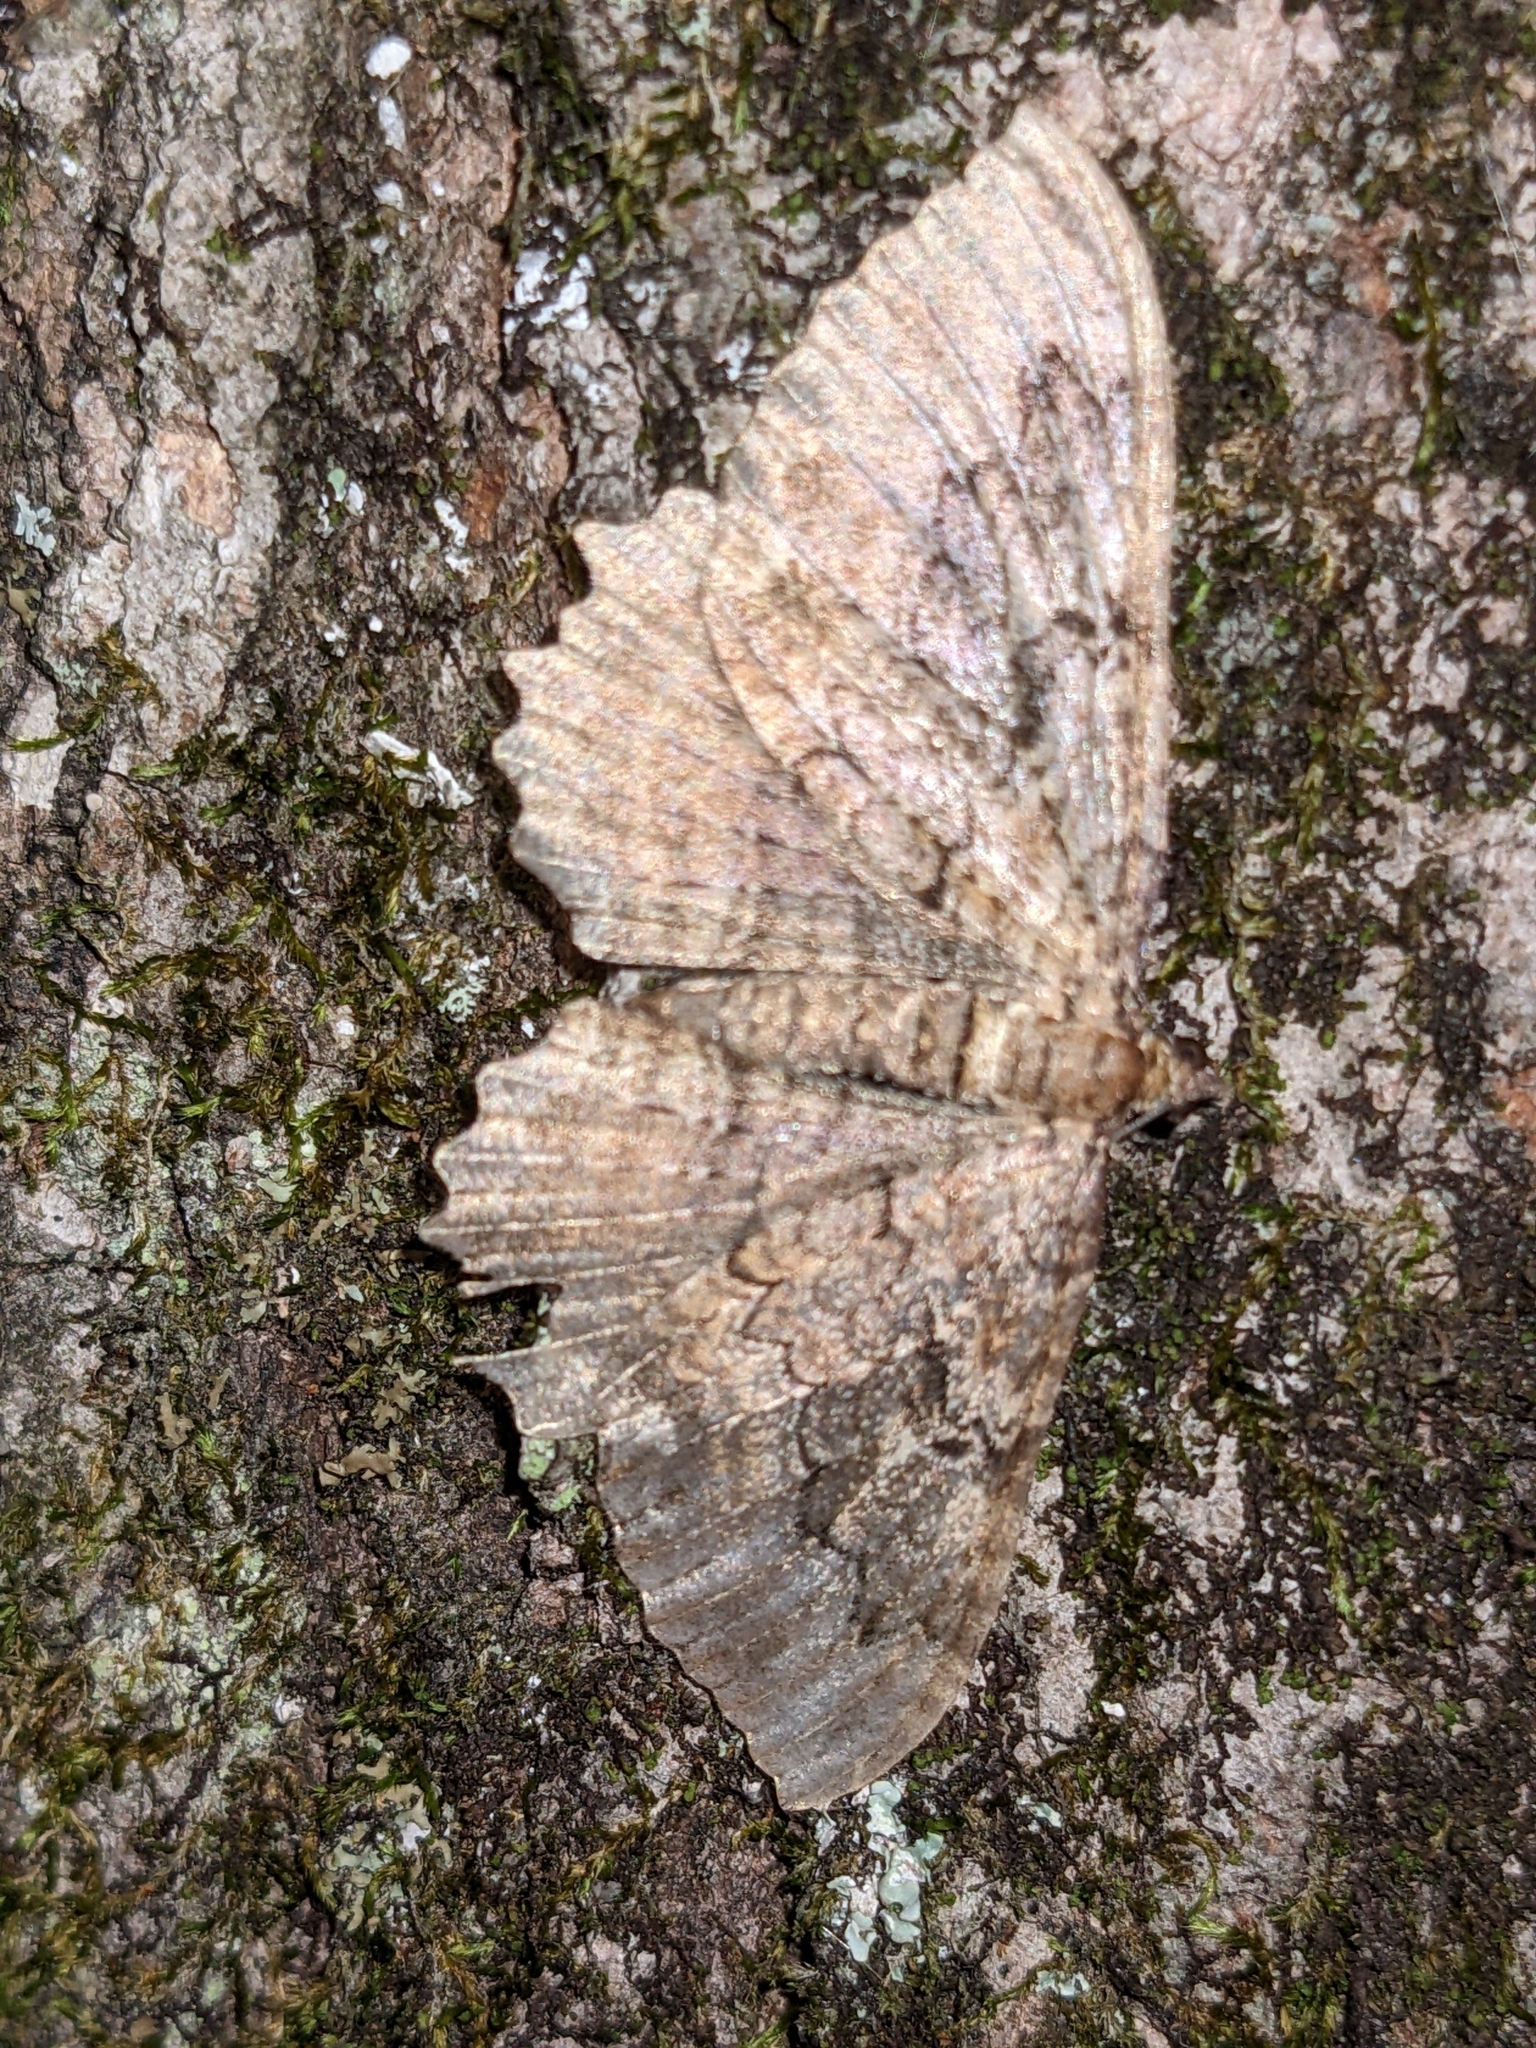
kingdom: Animalia
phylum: Arthropoda
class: Insecta
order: Lepidoptera
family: Geometridae
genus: Rheumaptera
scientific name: Rheumaptera
